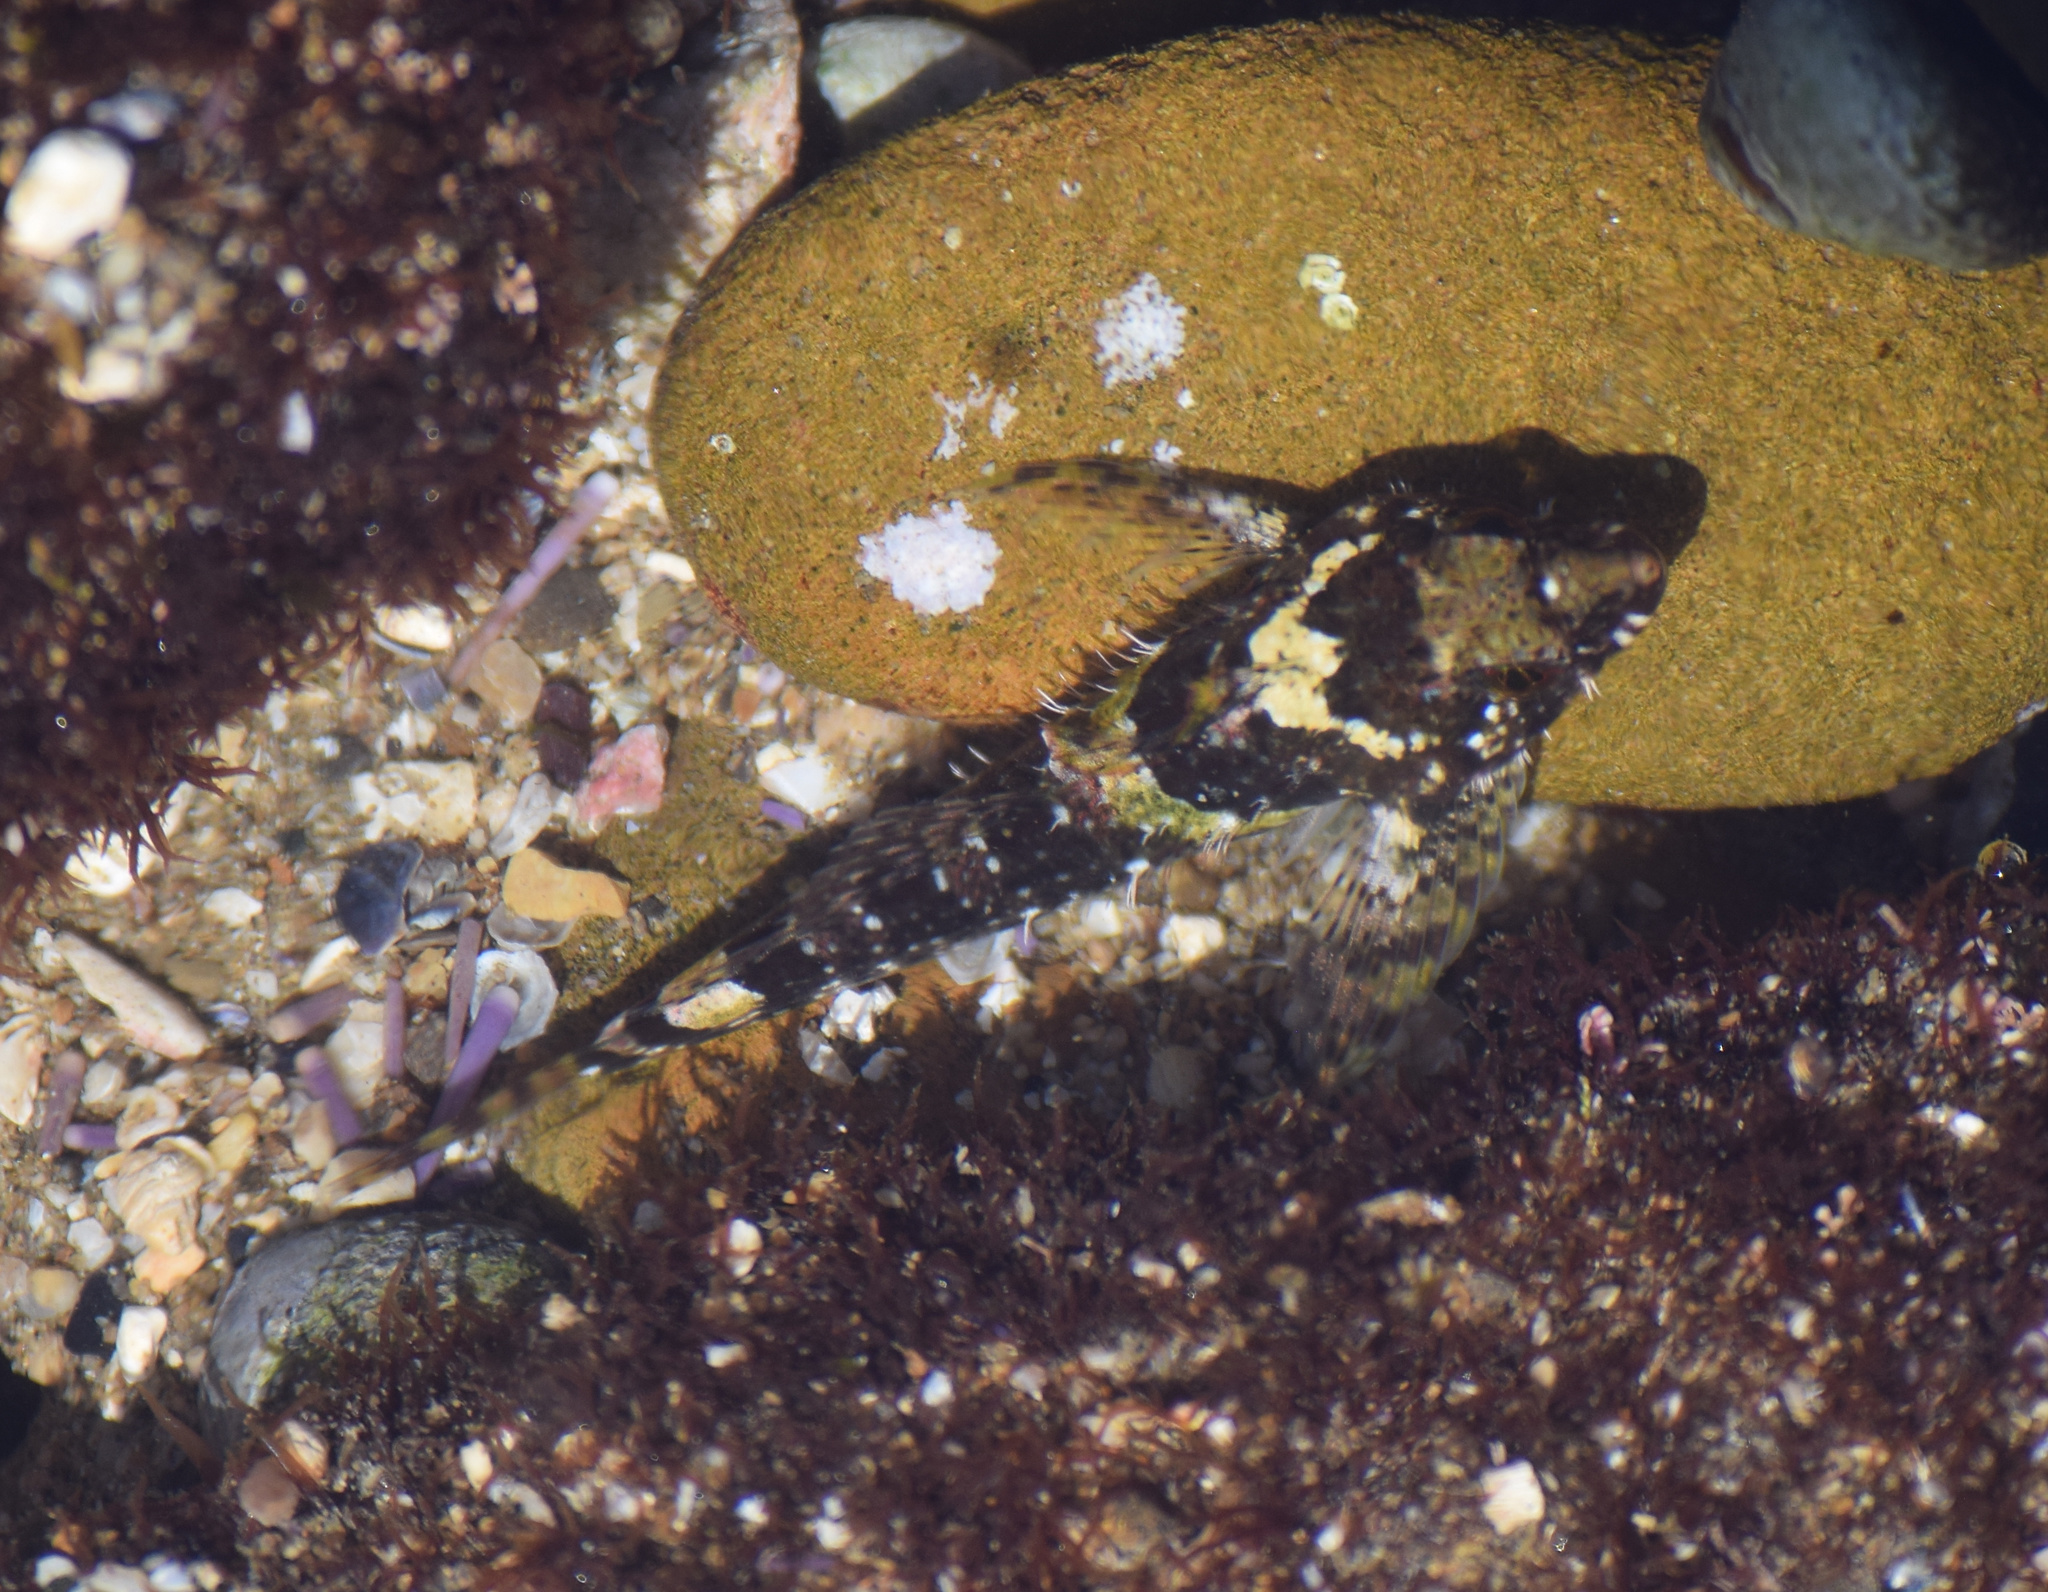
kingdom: Animalia
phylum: Chordata
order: Scorpaeniformes
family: Cottidae
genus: Clinocottus
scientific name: Clinocottus analis
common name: Woolly sculpin
